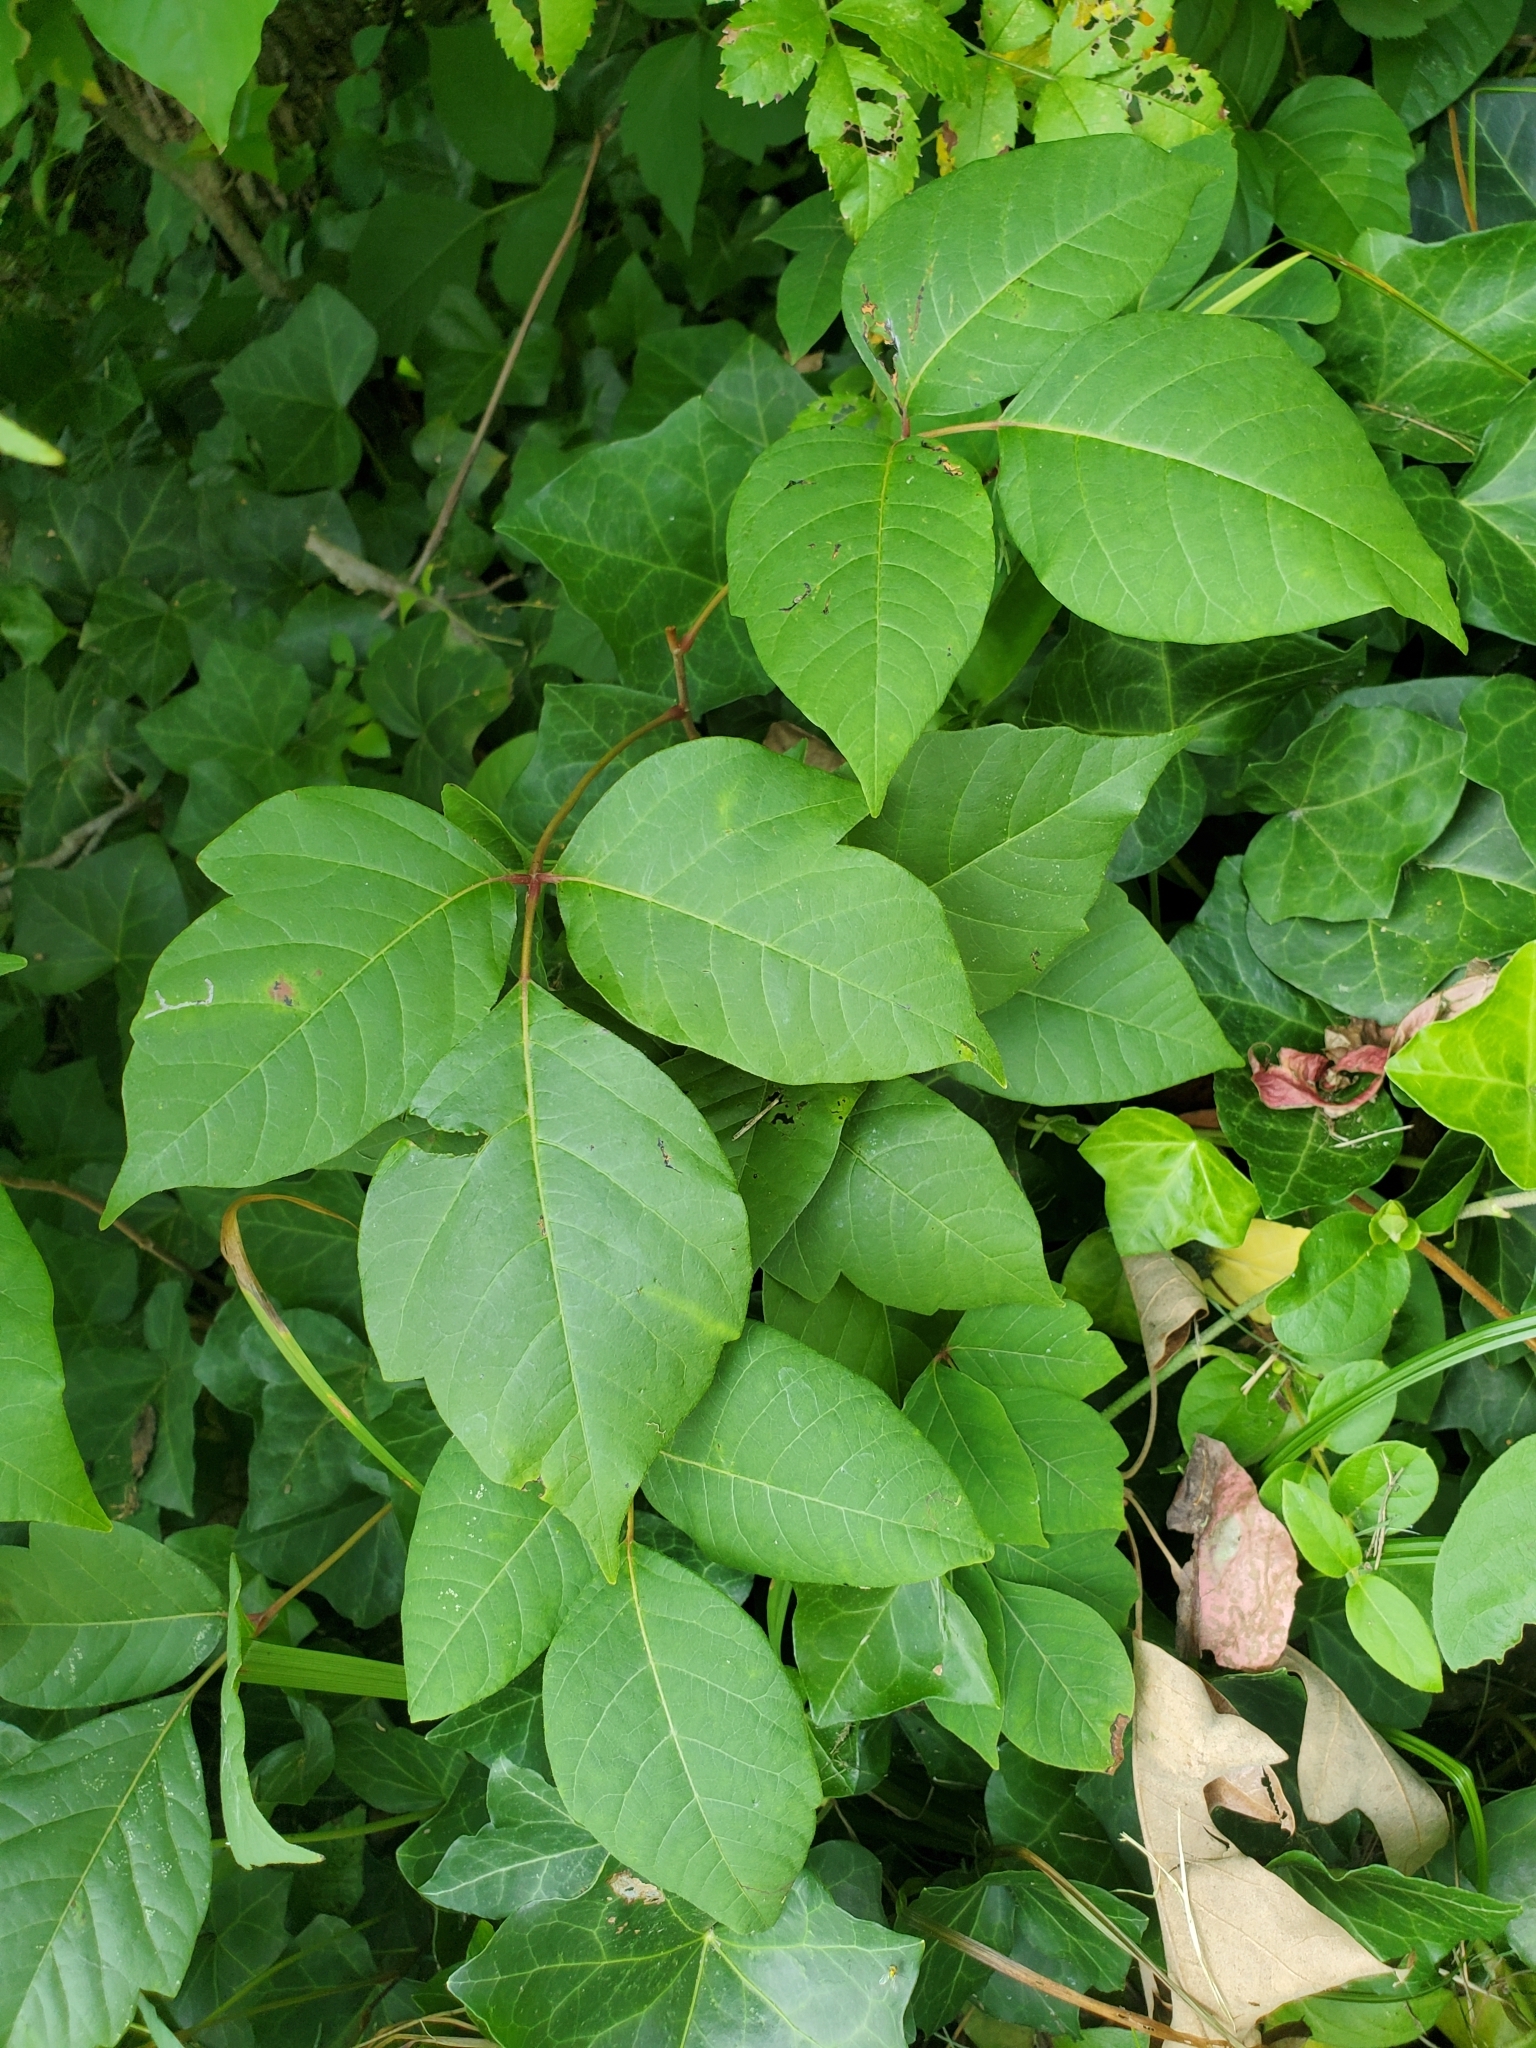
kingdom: Plantae
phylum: Tracheophyta
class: Magnoliopsida
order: Sapindales
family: Anacardiaceae
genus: Toxicodendron
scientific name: Toxicodendron radicans
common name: Poison ivy
